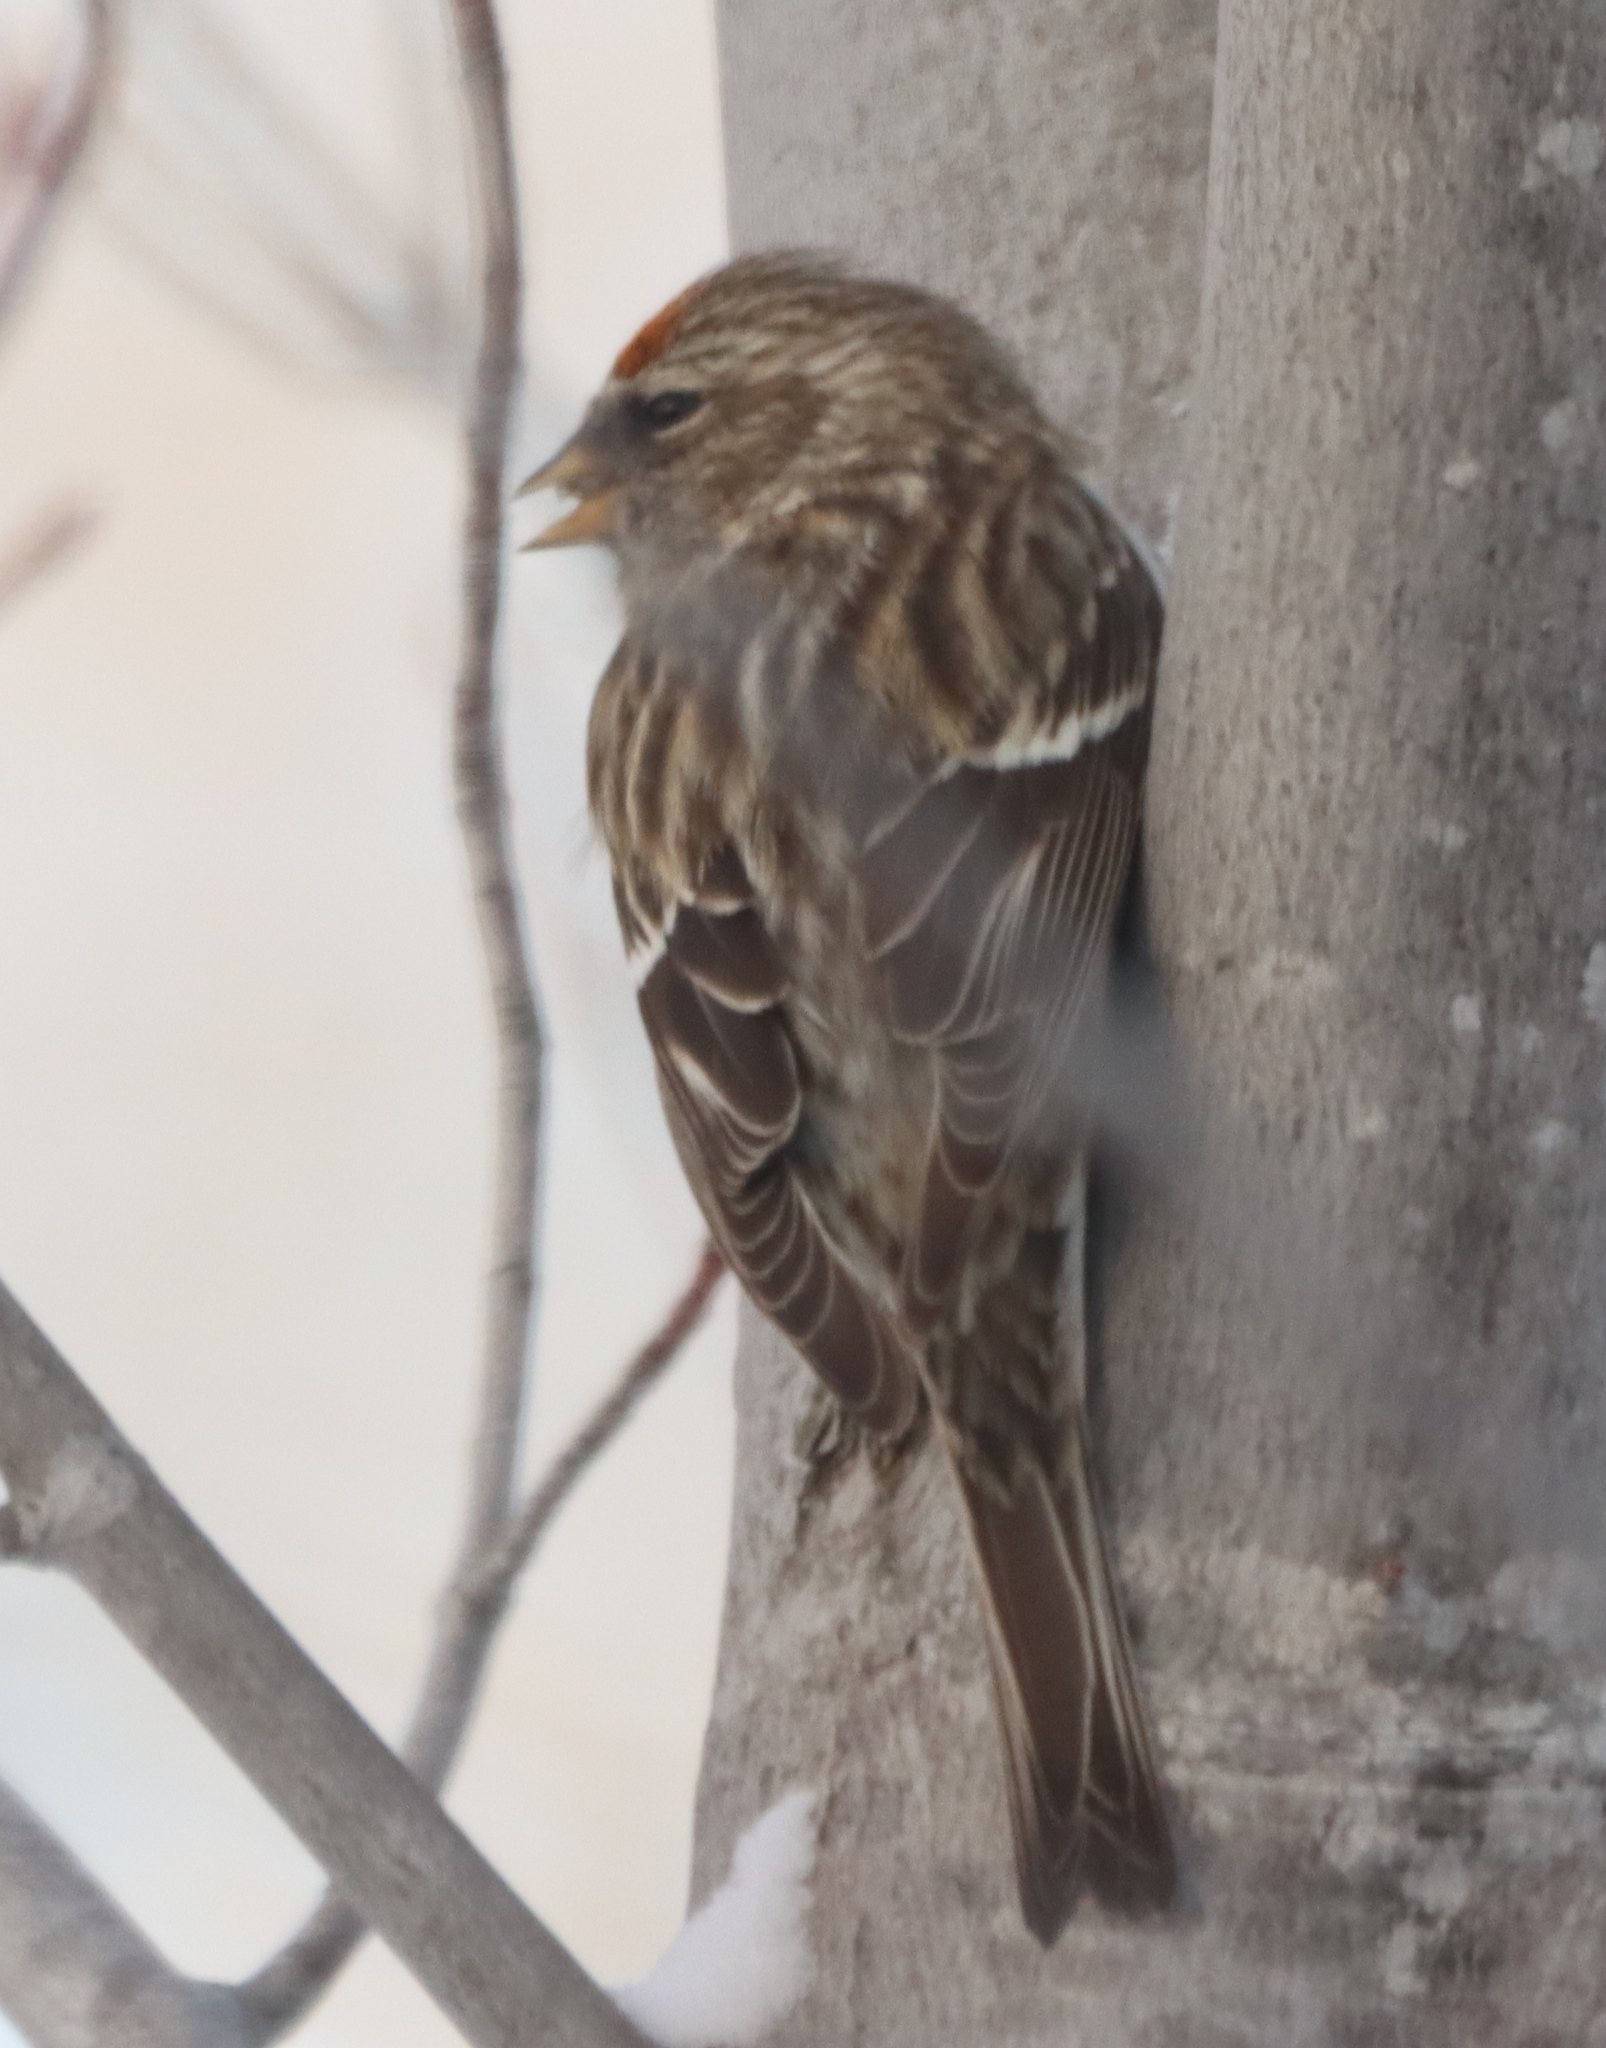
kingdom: Animalia
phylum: Chordata
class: Aves
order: Passeriformes
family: Fringillidae
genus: Acanthis
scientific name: Acanthis flammea
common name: Common redpoll
